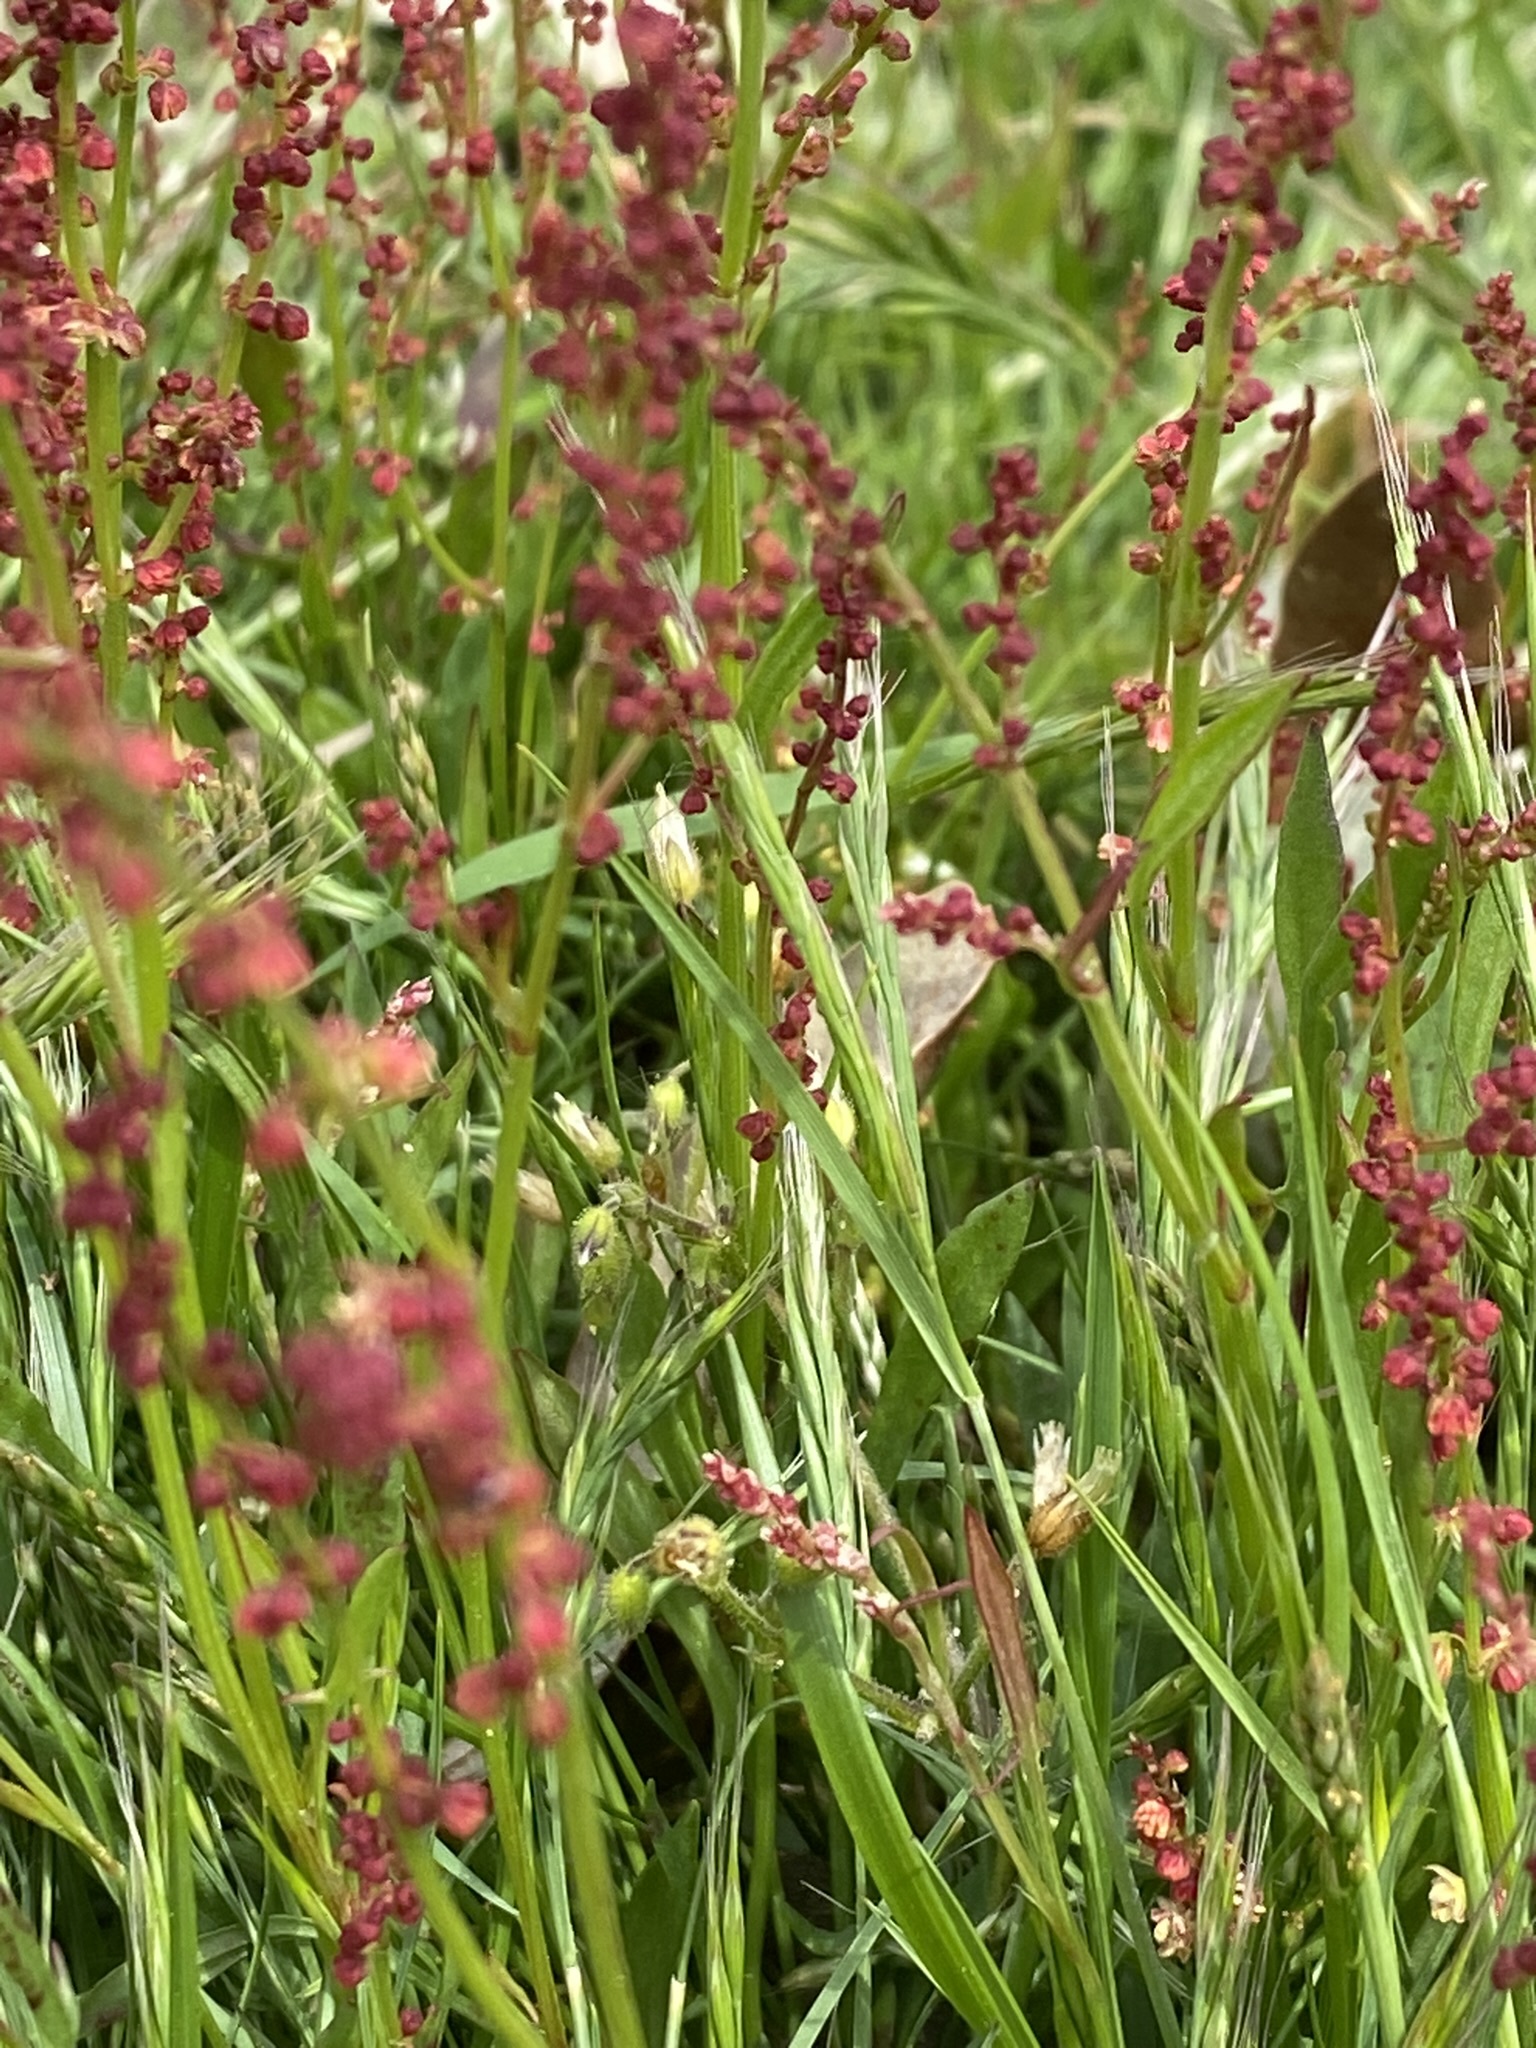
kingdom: Plantae
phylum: Tracheophyta
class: Magnoliopsida
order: Caryophyllales
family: Polygonaceae
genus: Rumex
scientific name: Rumex acetosella
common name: Common sheep sorrel
